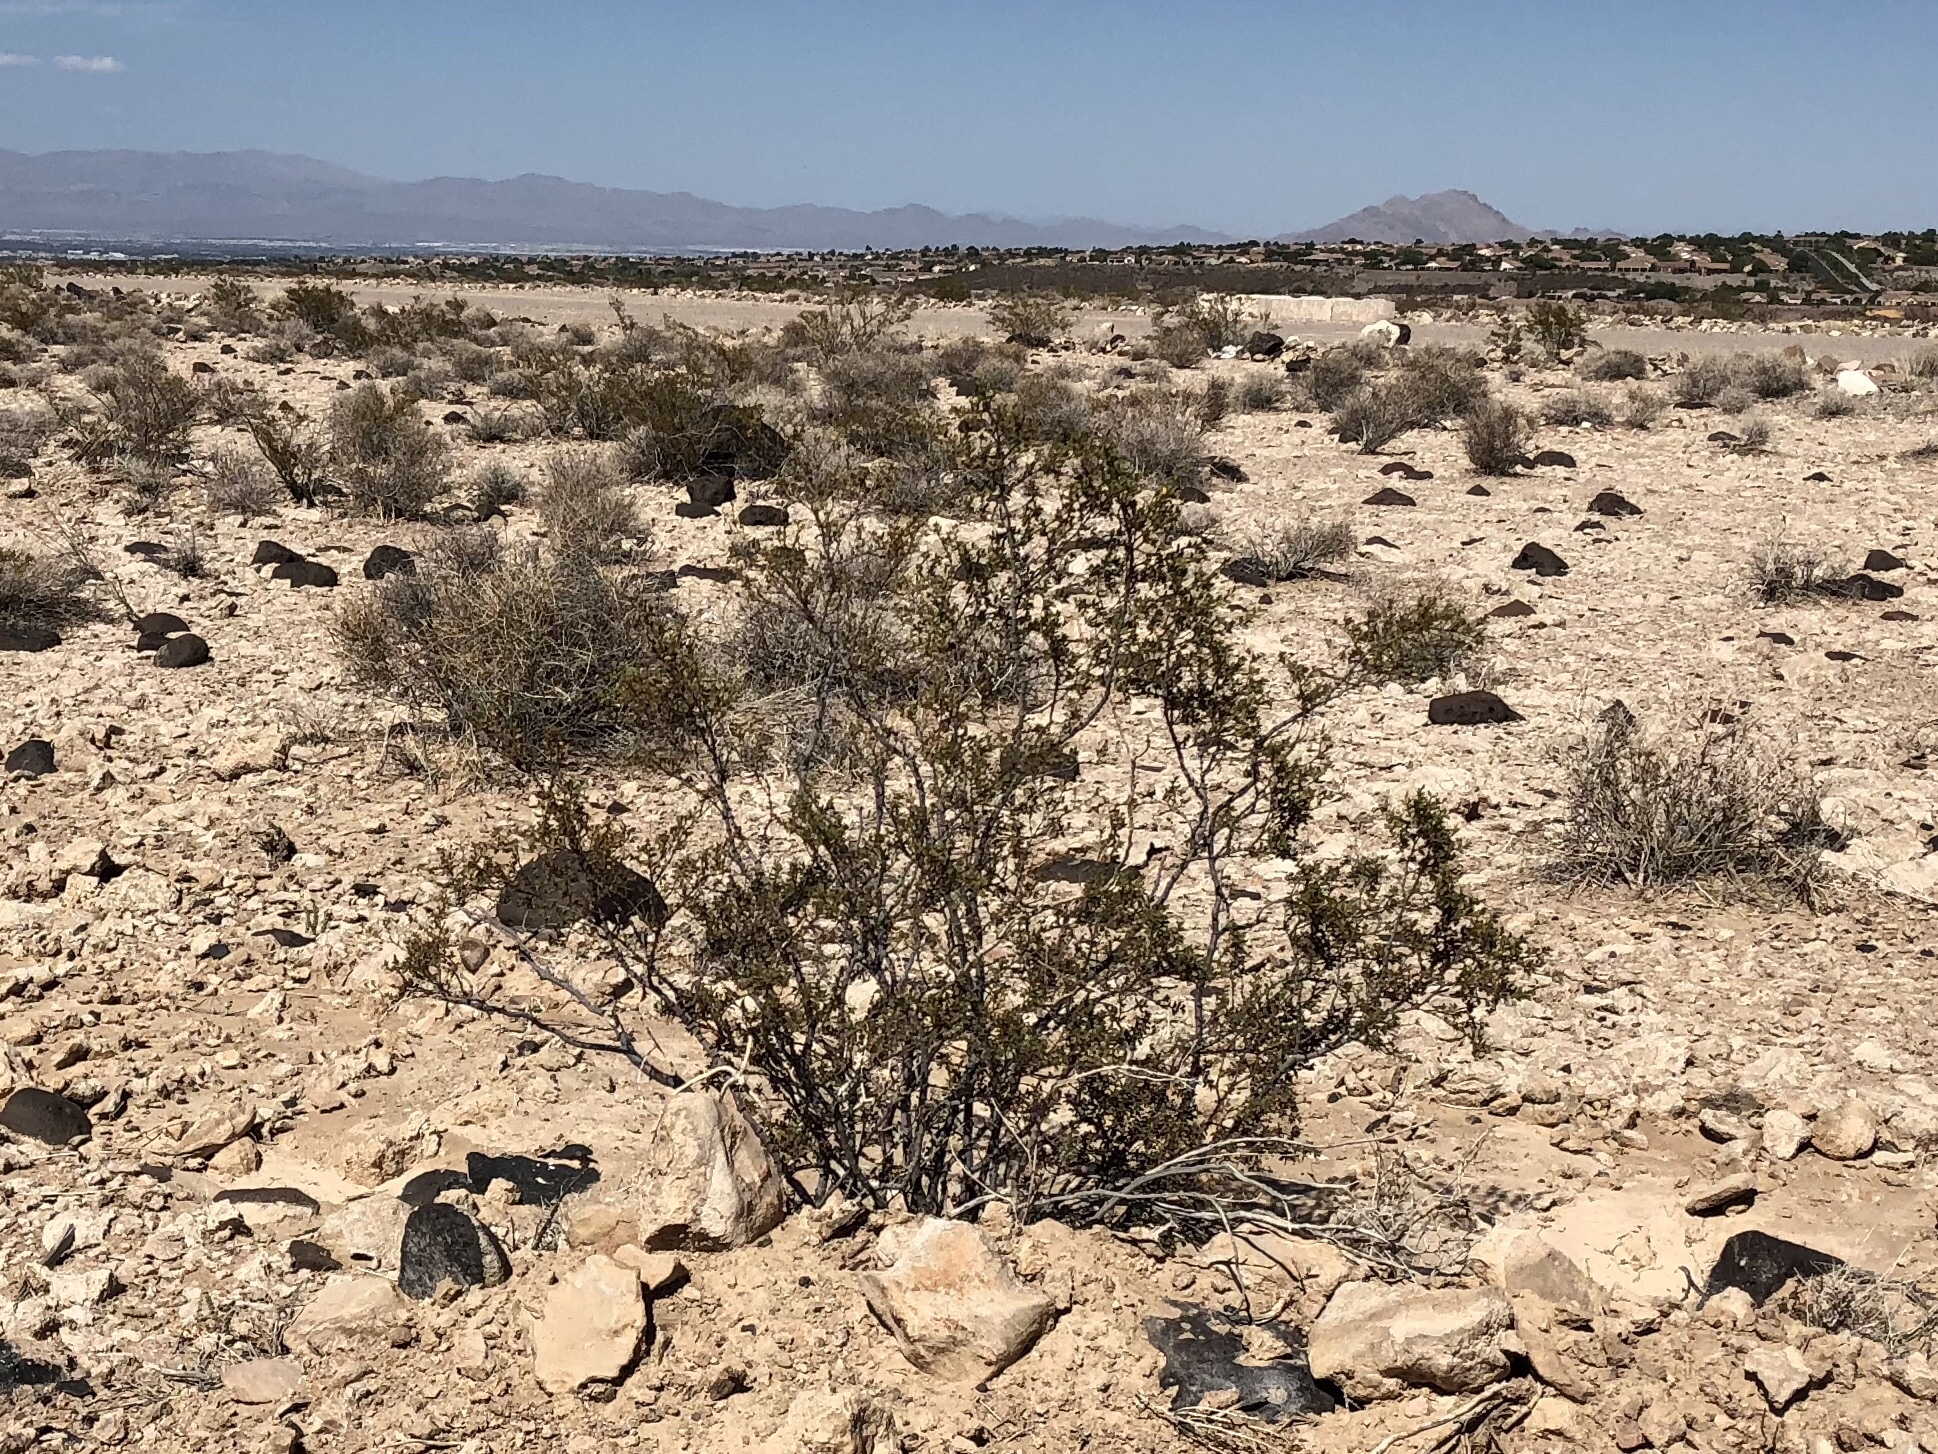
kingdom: Plantae
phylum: Tracheophyta
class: Magnoliopsida
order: Zygophyllales
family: Zygophyllaceae
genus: Larrea
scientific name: Larrea tridentata
